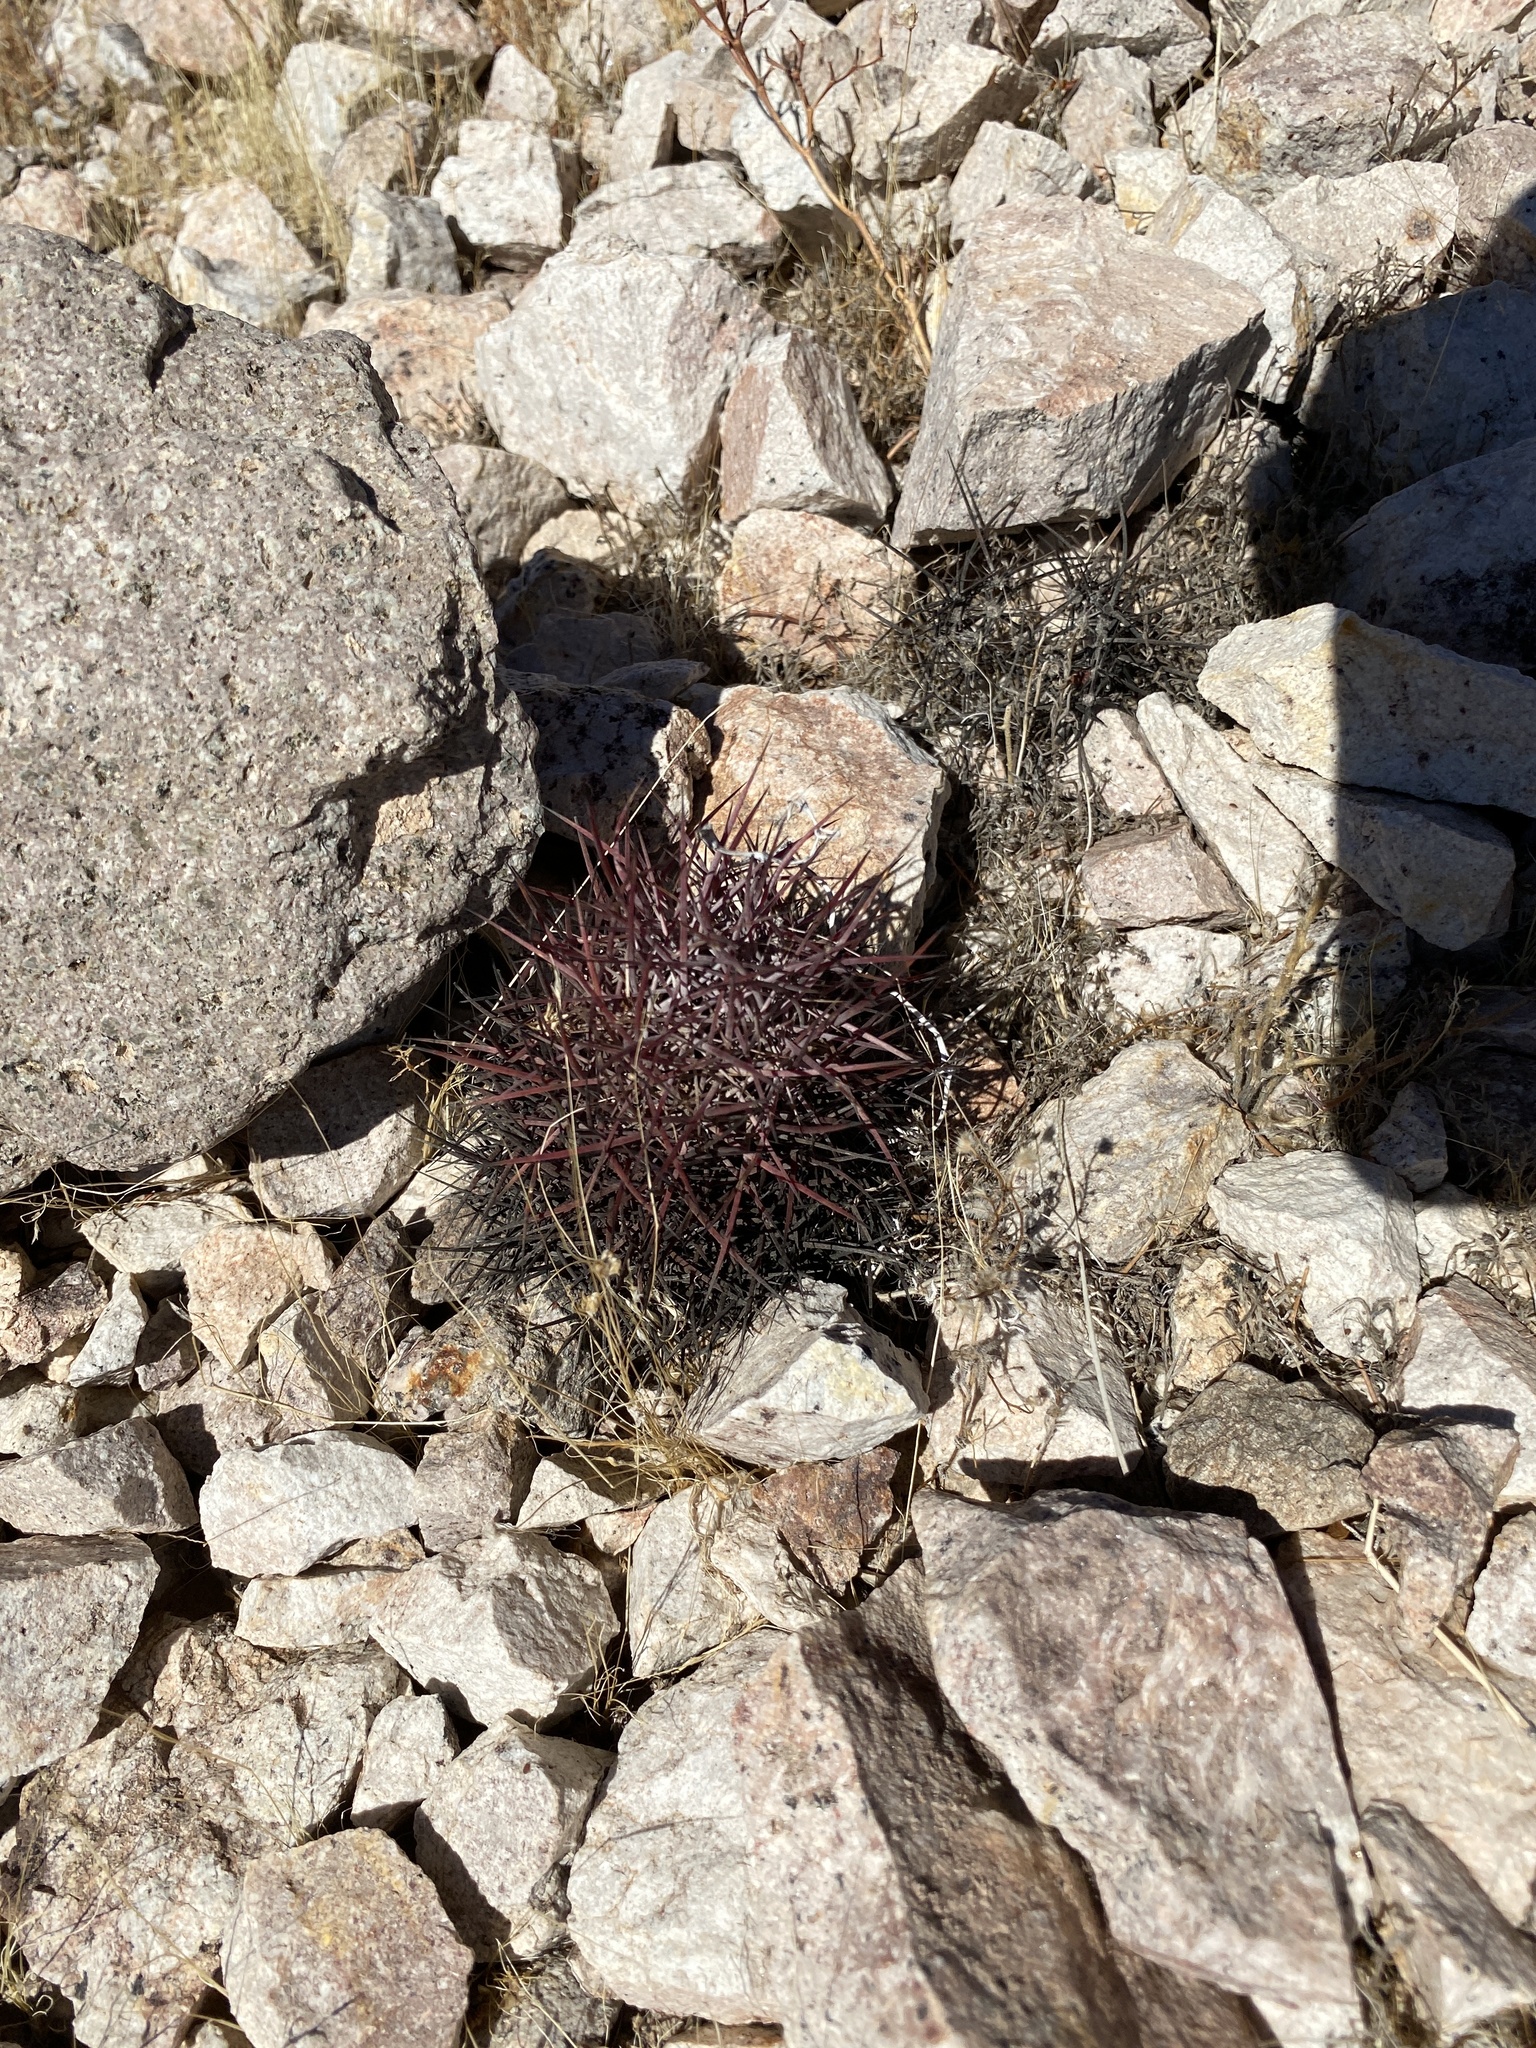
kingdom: Plantae
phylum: Tracheophyta
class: Magnoliopsida
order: Caryophyllales
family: Cactaceae
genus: Sclerocactus
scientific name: Sclerocactus johnsonii
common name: Eight-spine fishhook cactus
